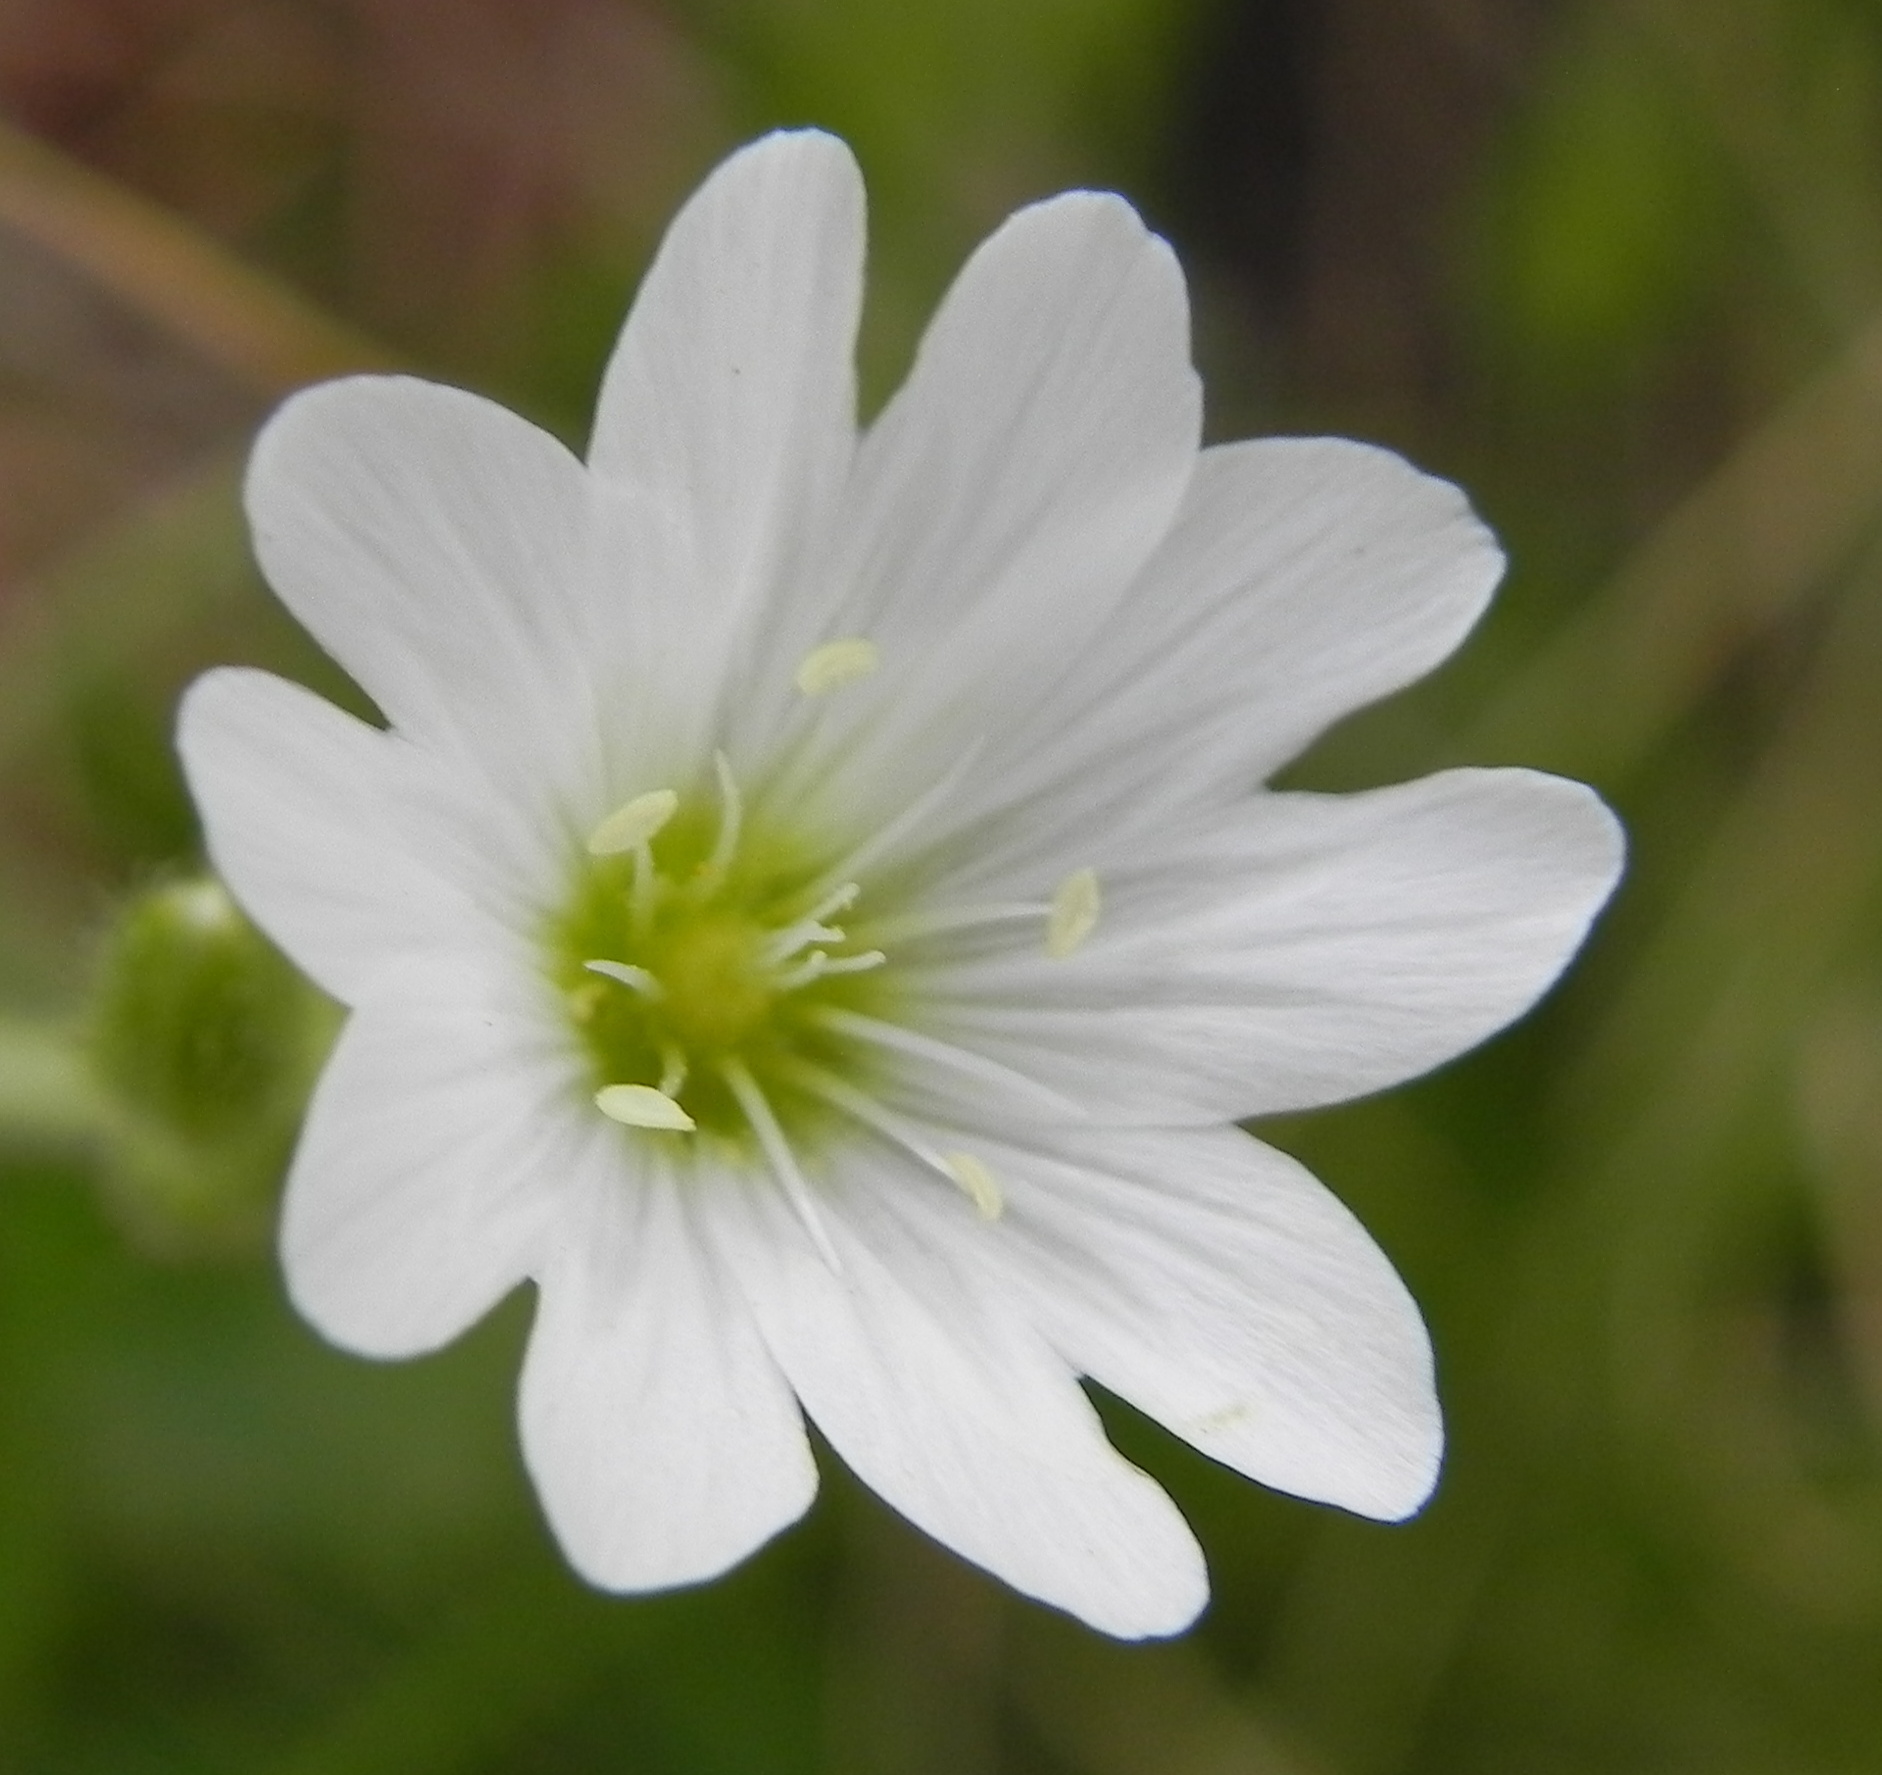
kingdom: Plantae
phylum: Tracheophyta
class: Magnoliopsida
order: Caryophyllales
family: Caryophyllaceae
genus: Cerastium
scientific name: Cerastium arabidis
